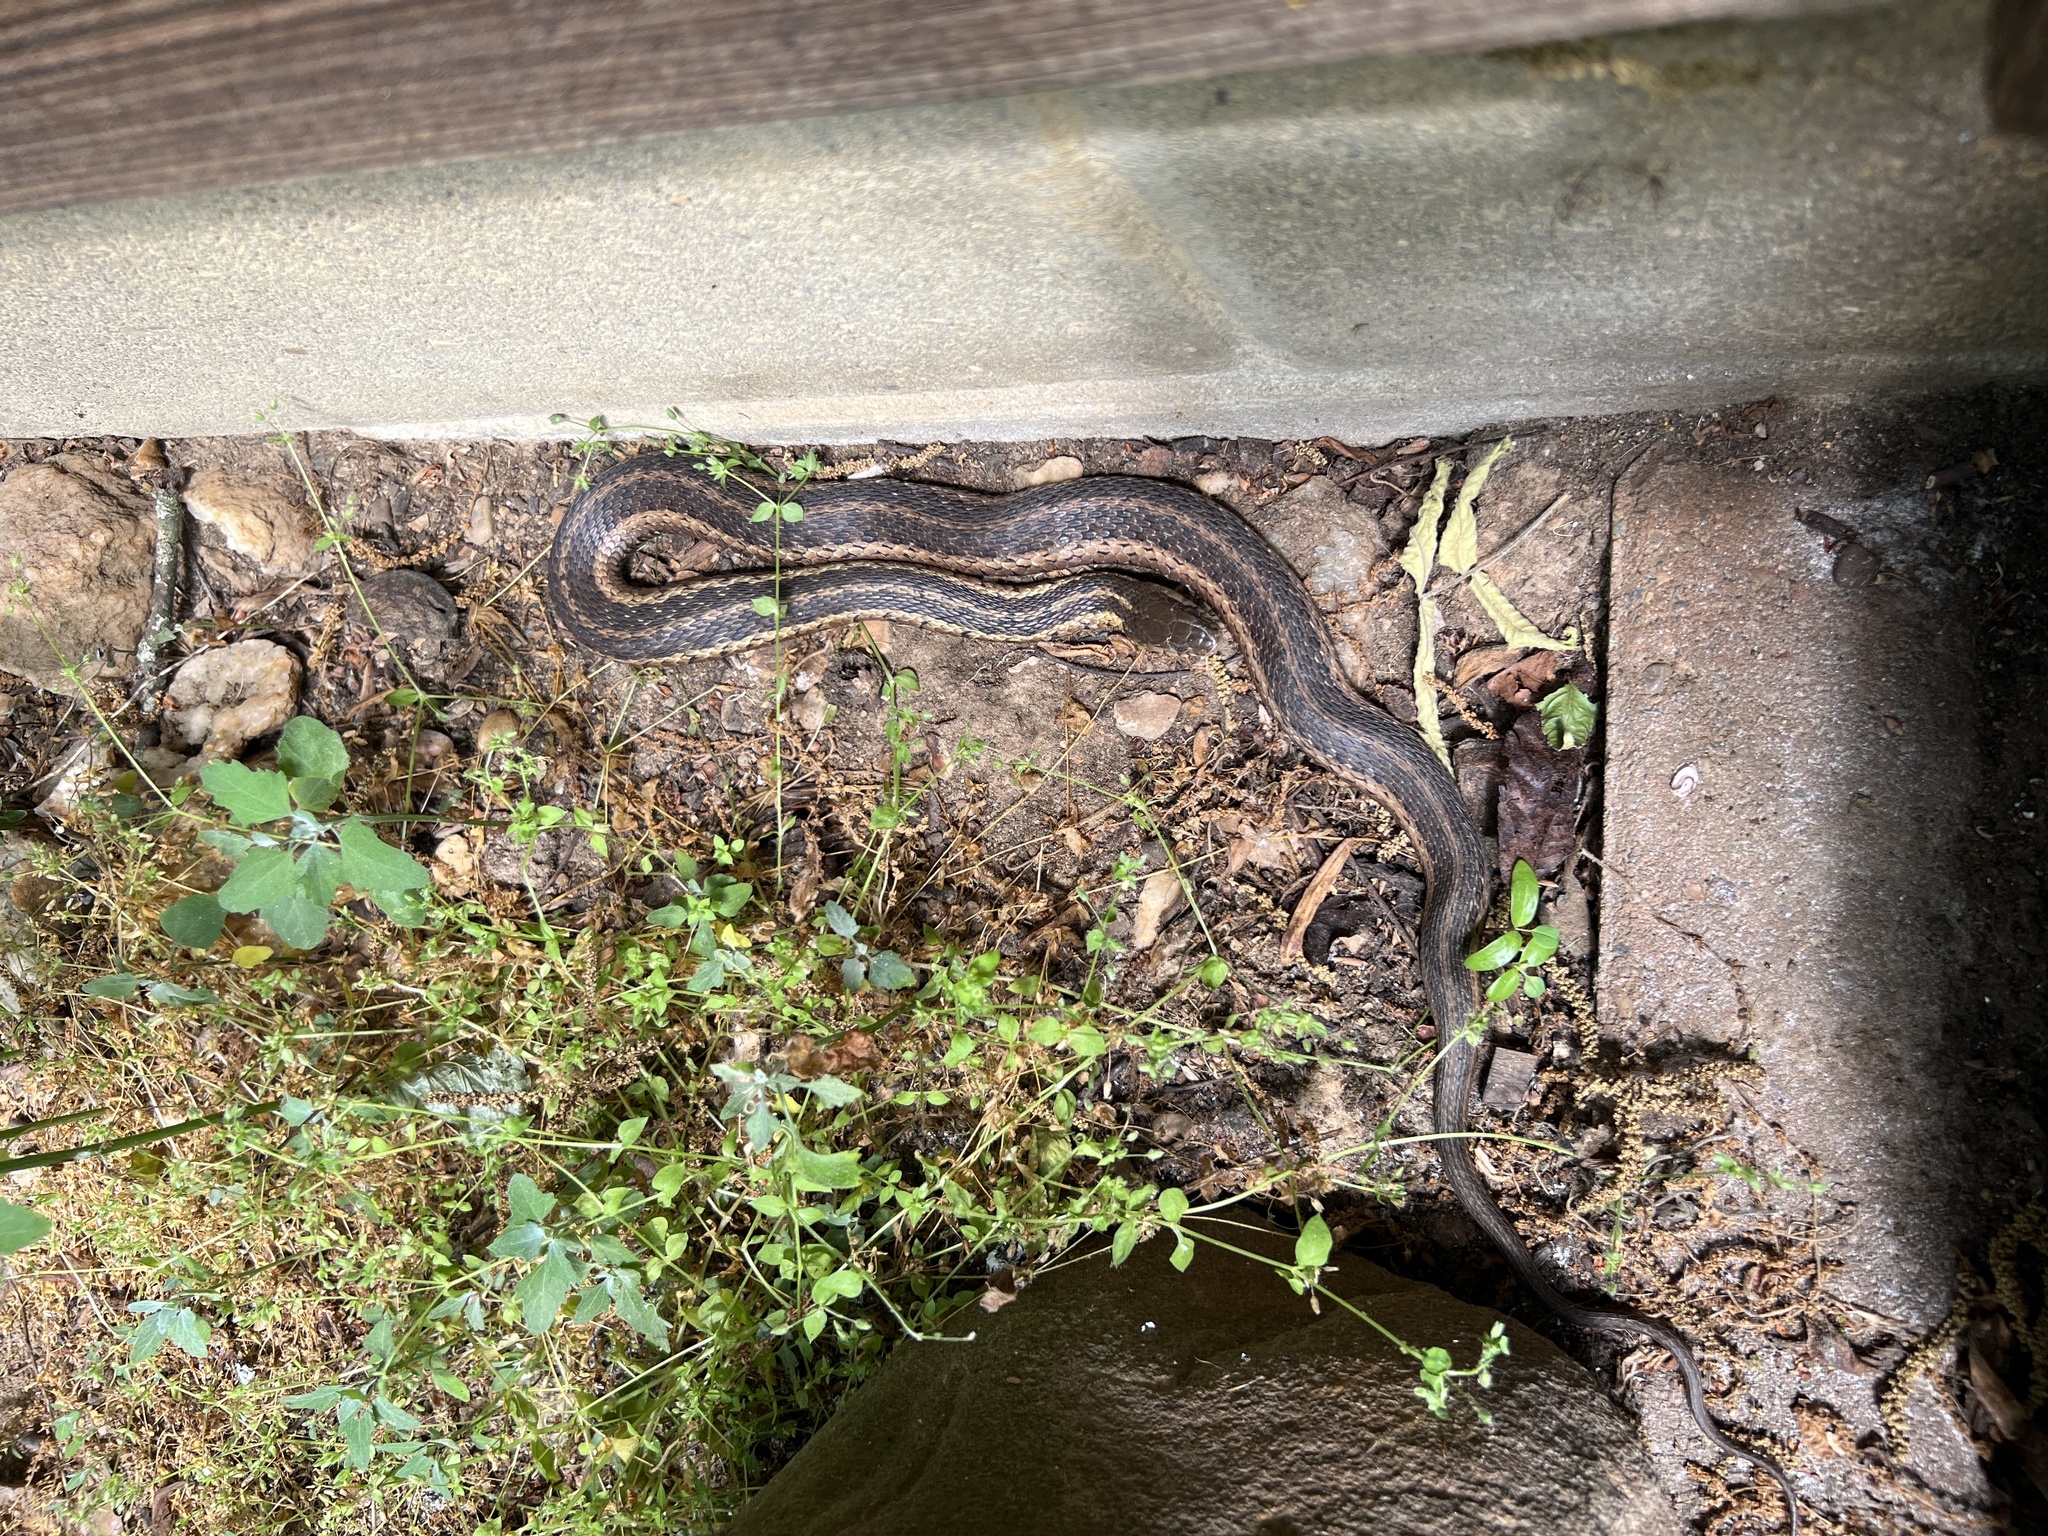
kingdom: Animalia
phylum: Chordata
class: Squamata
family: Colubridae
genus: Thamnophis
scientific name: Thamnophis sirtalis
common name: Common garter snake
